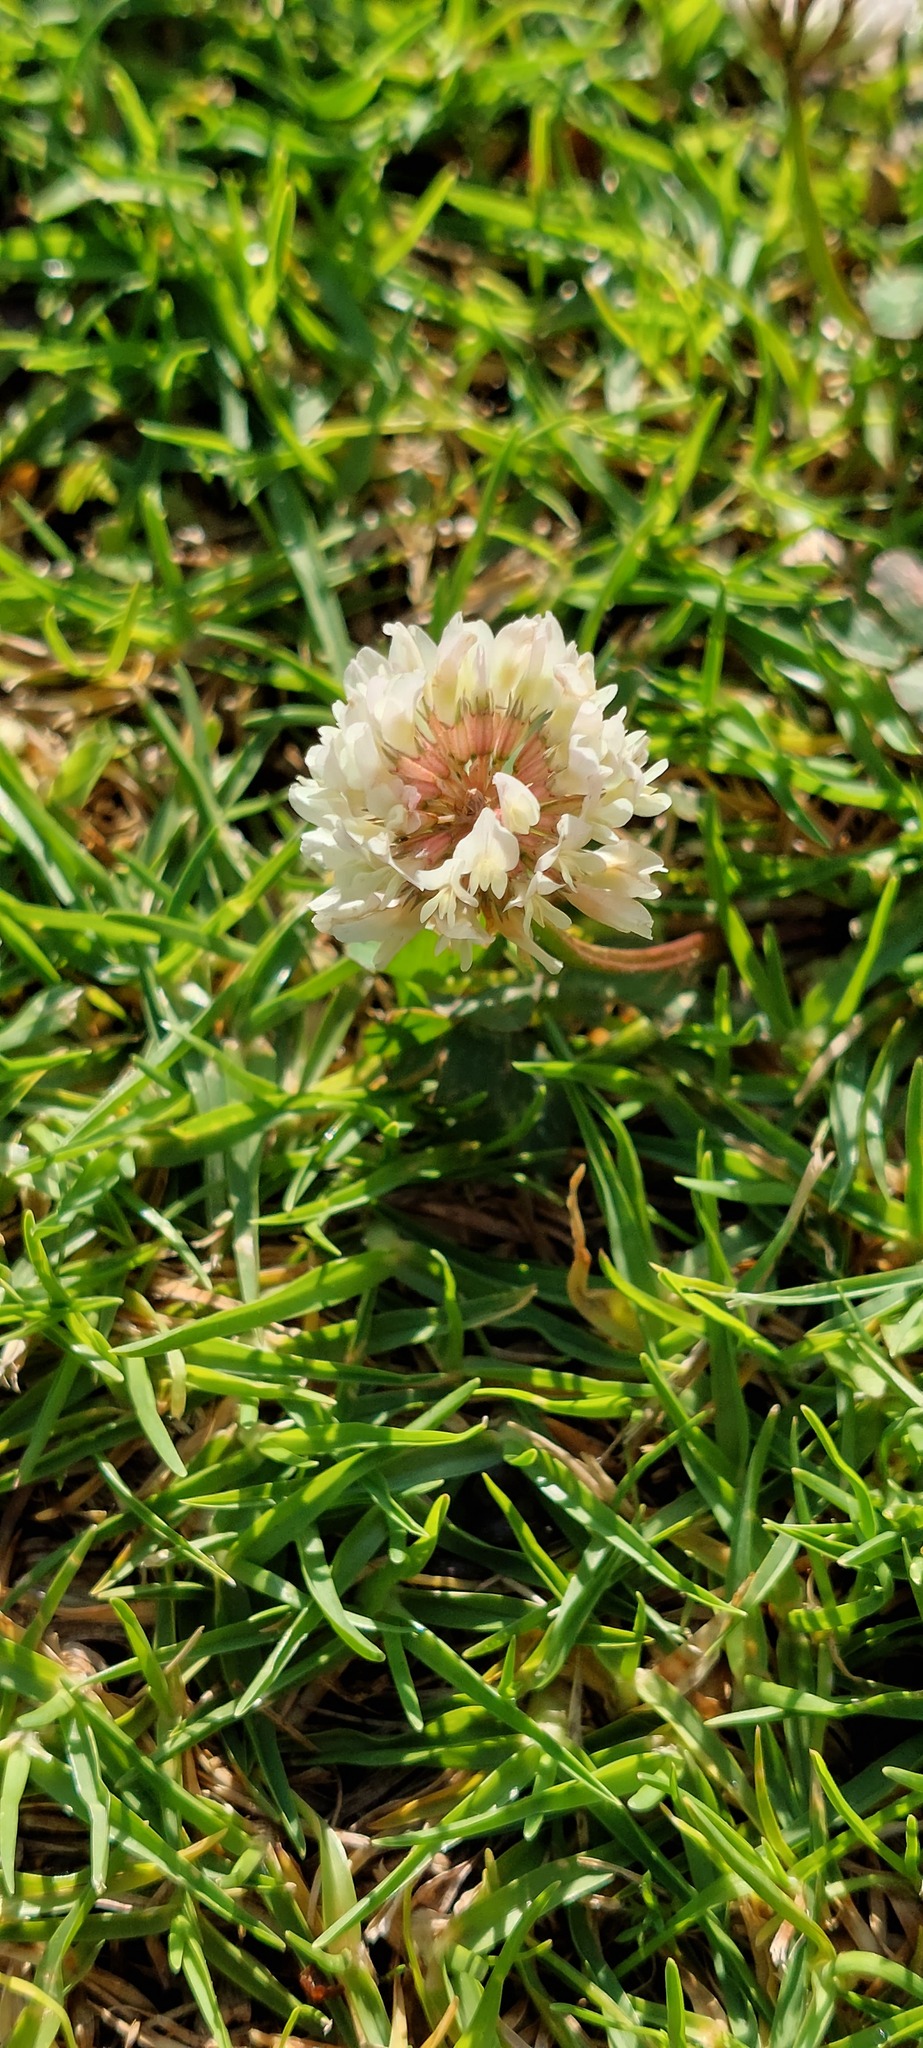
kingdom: Plantae
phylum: Tracheophyta
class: Magnoliopsida
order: Fabales
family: Fabaceae
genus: Trifolium
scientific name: Trifolium repens
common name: White clover
